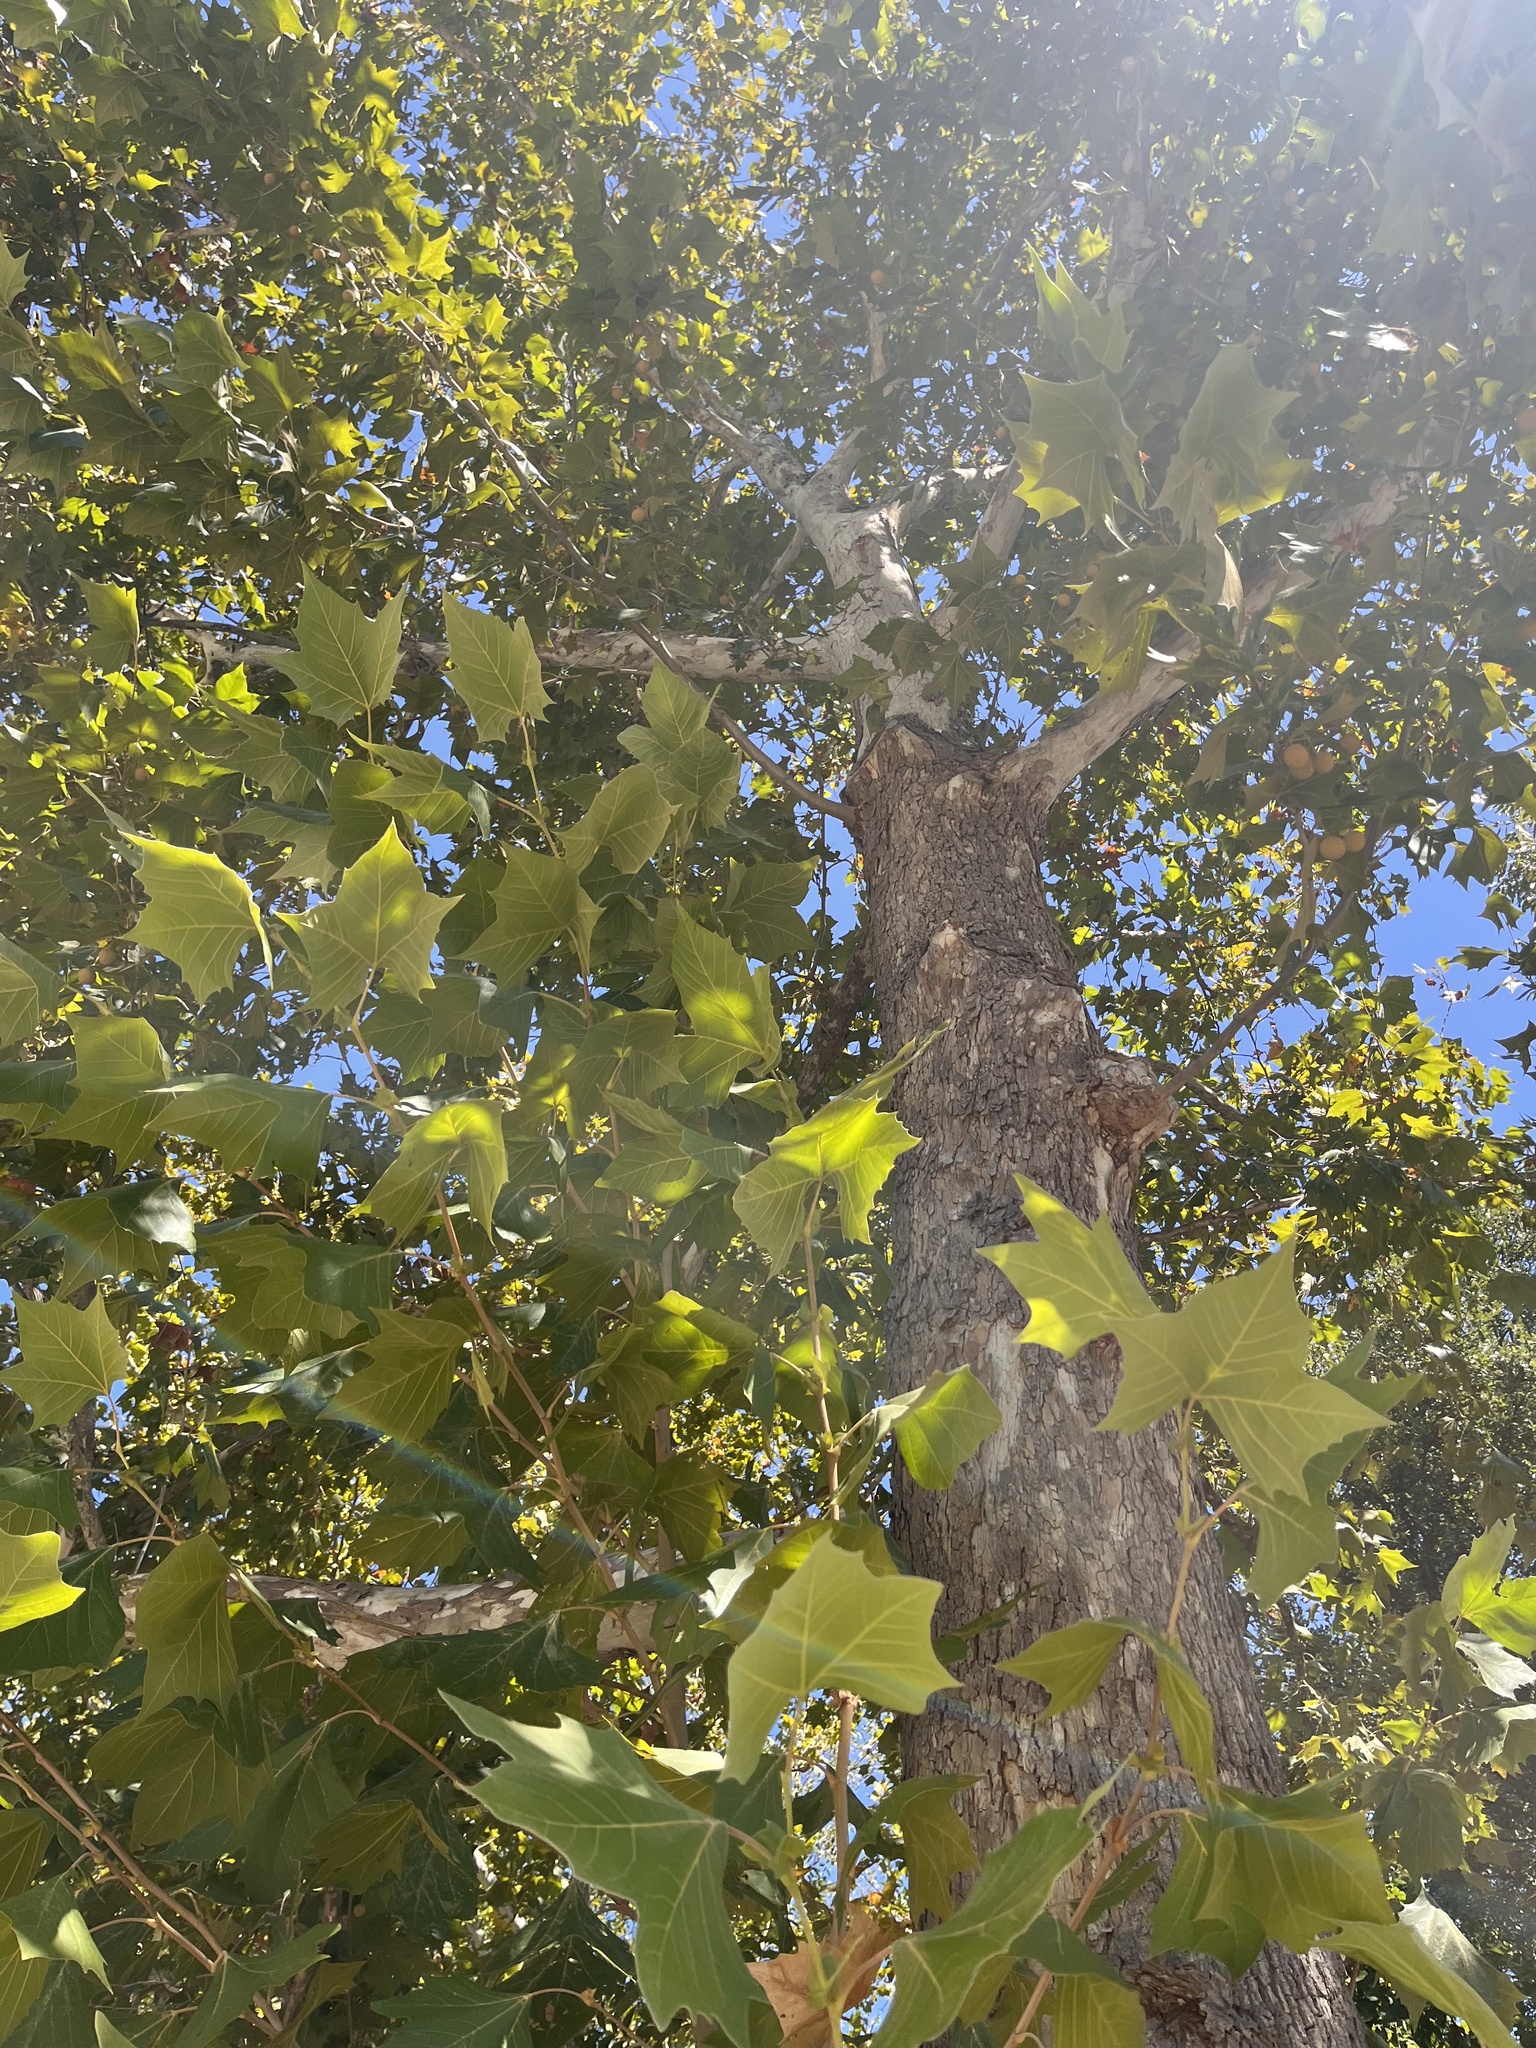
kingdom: Plantae
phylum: Tracheophyta
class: Magnoliopsida
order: Proteales
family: Platanaceae
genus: Platanus
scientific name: Platanus occidentalis
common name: American sycamore
